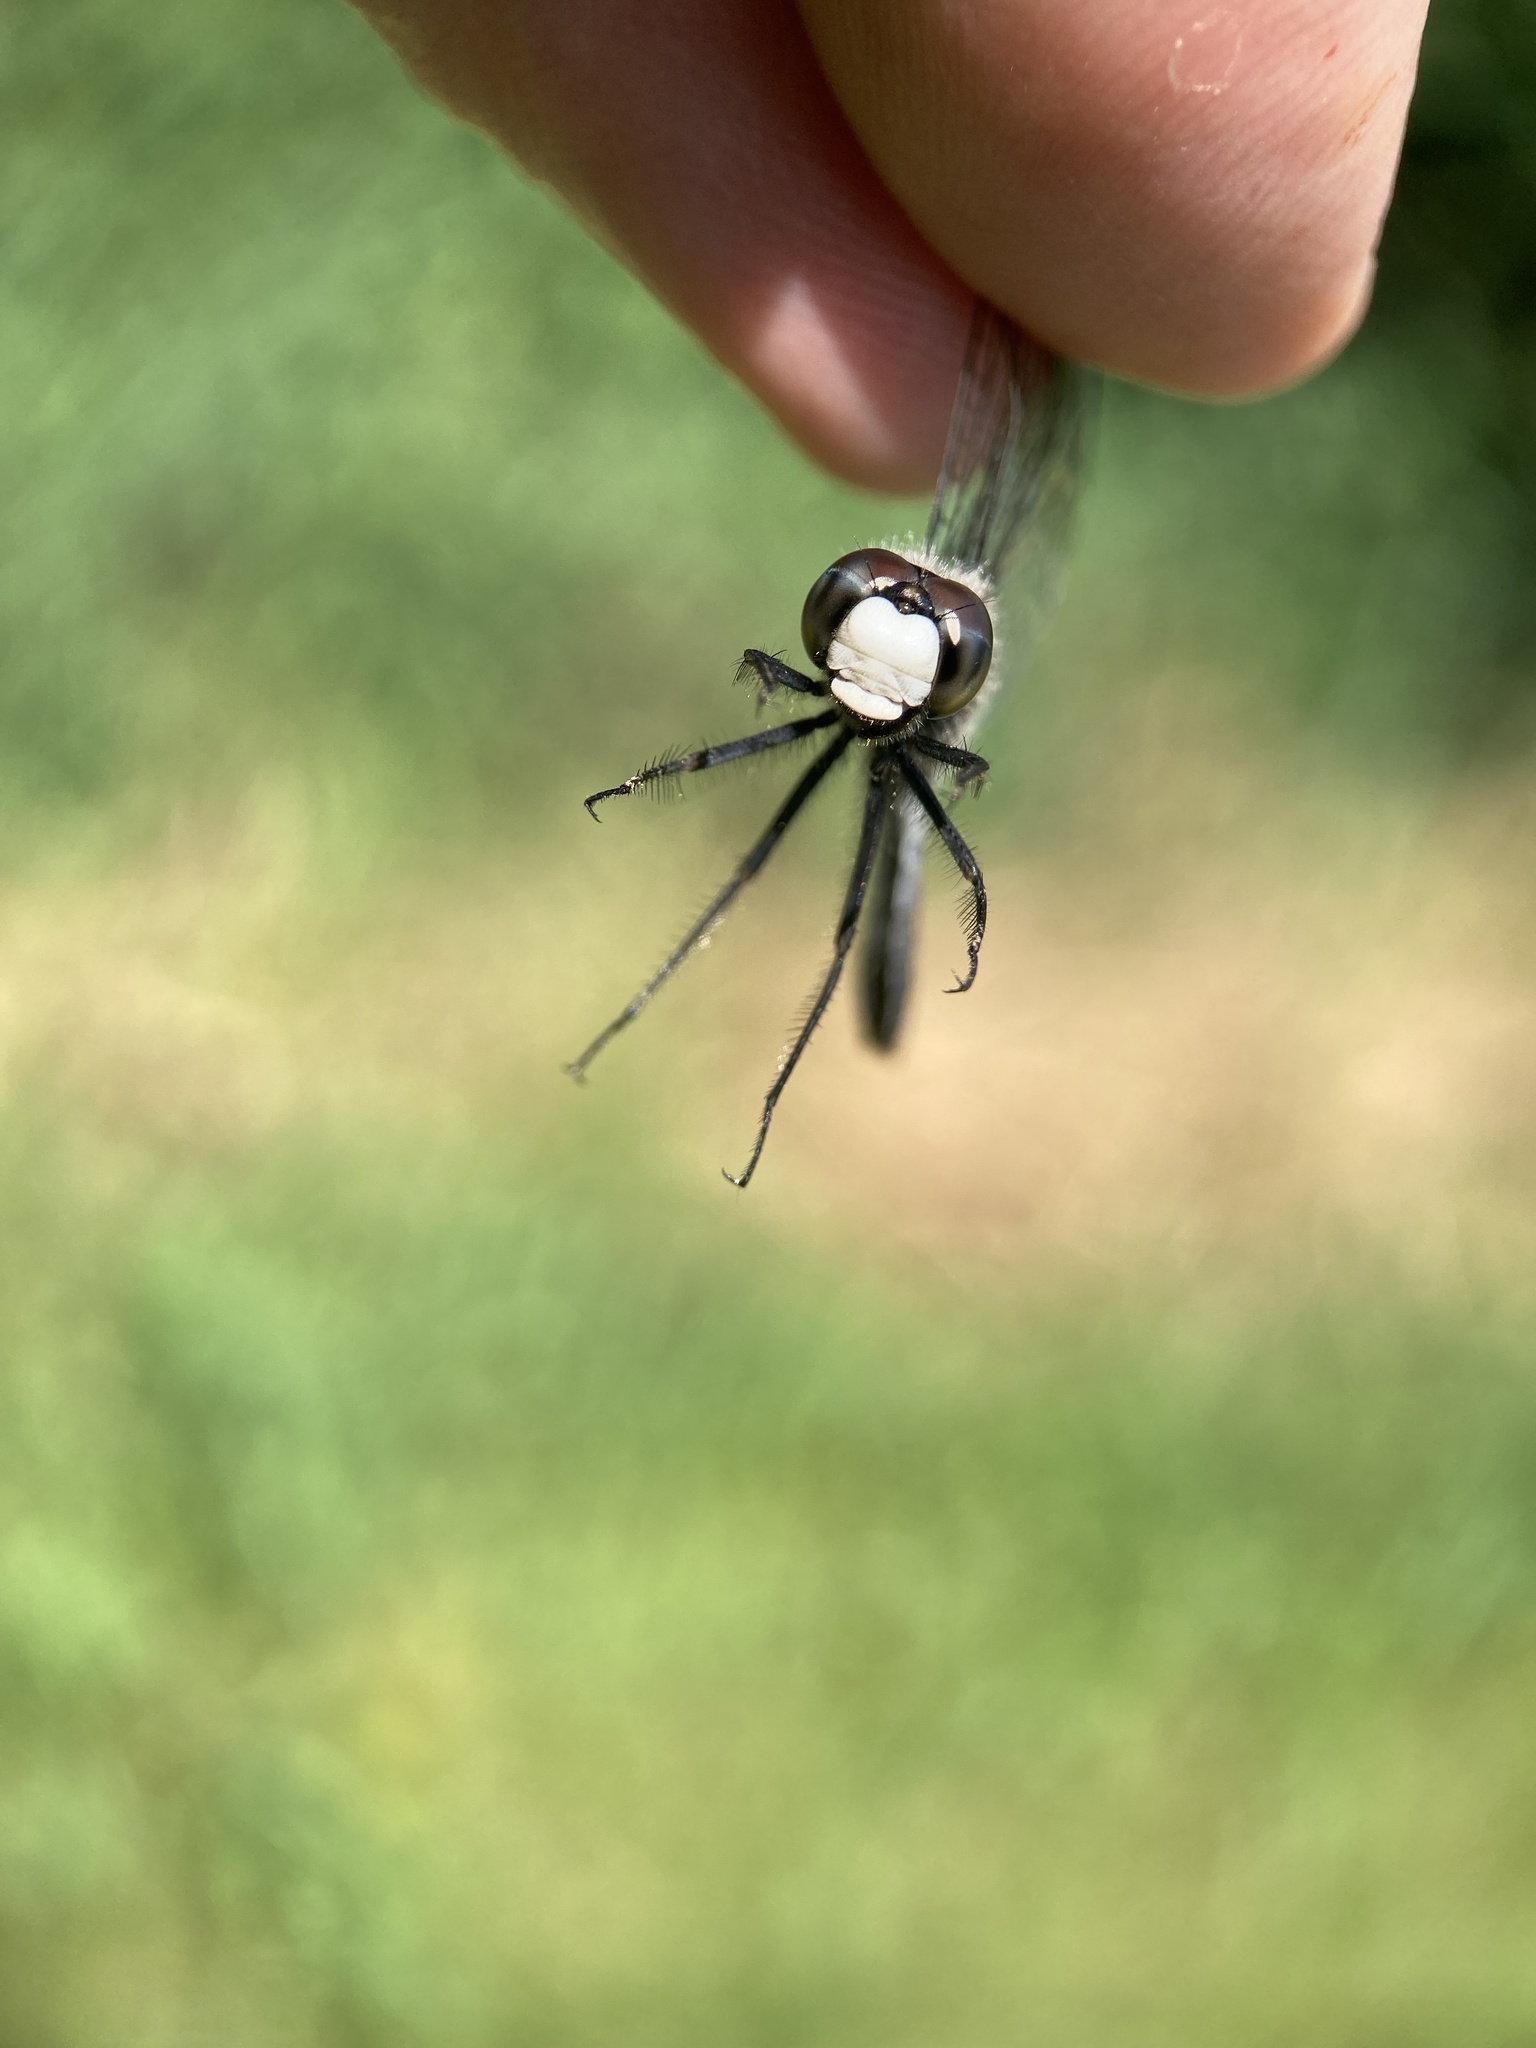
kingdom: Animalia
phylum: Arthropoda
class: Insecta
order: Odonata
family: Libellulidae
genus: Leucorrhinia
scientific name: Leucorrhinia intacta
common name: Dot-tailed whiteface
